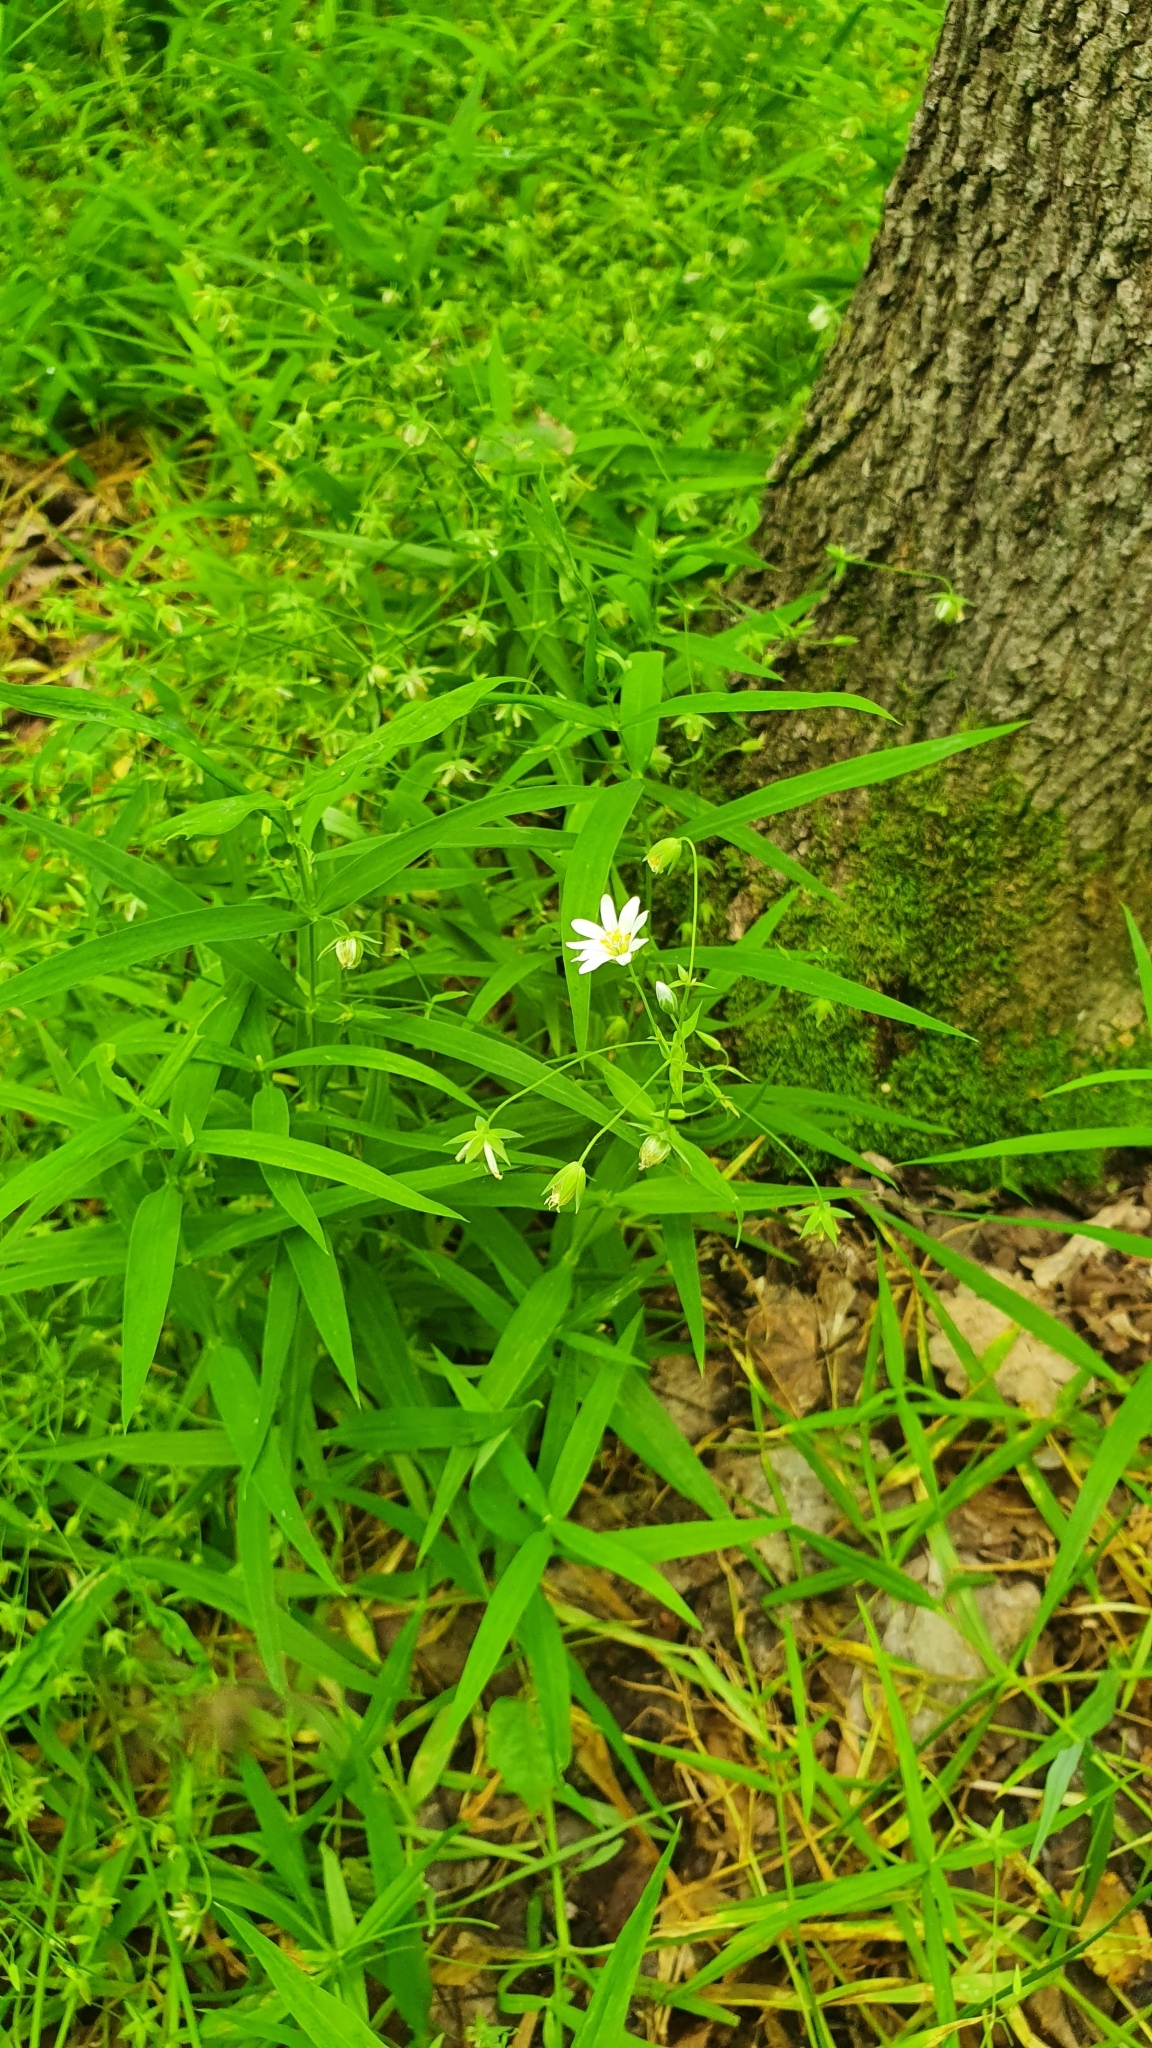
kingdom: Plantae
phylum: Tracheophyta
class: Magnoliopsida
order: Caryophyllales
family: Caryophyllaceae
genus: Rabelera
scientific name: Rabelera holostea
